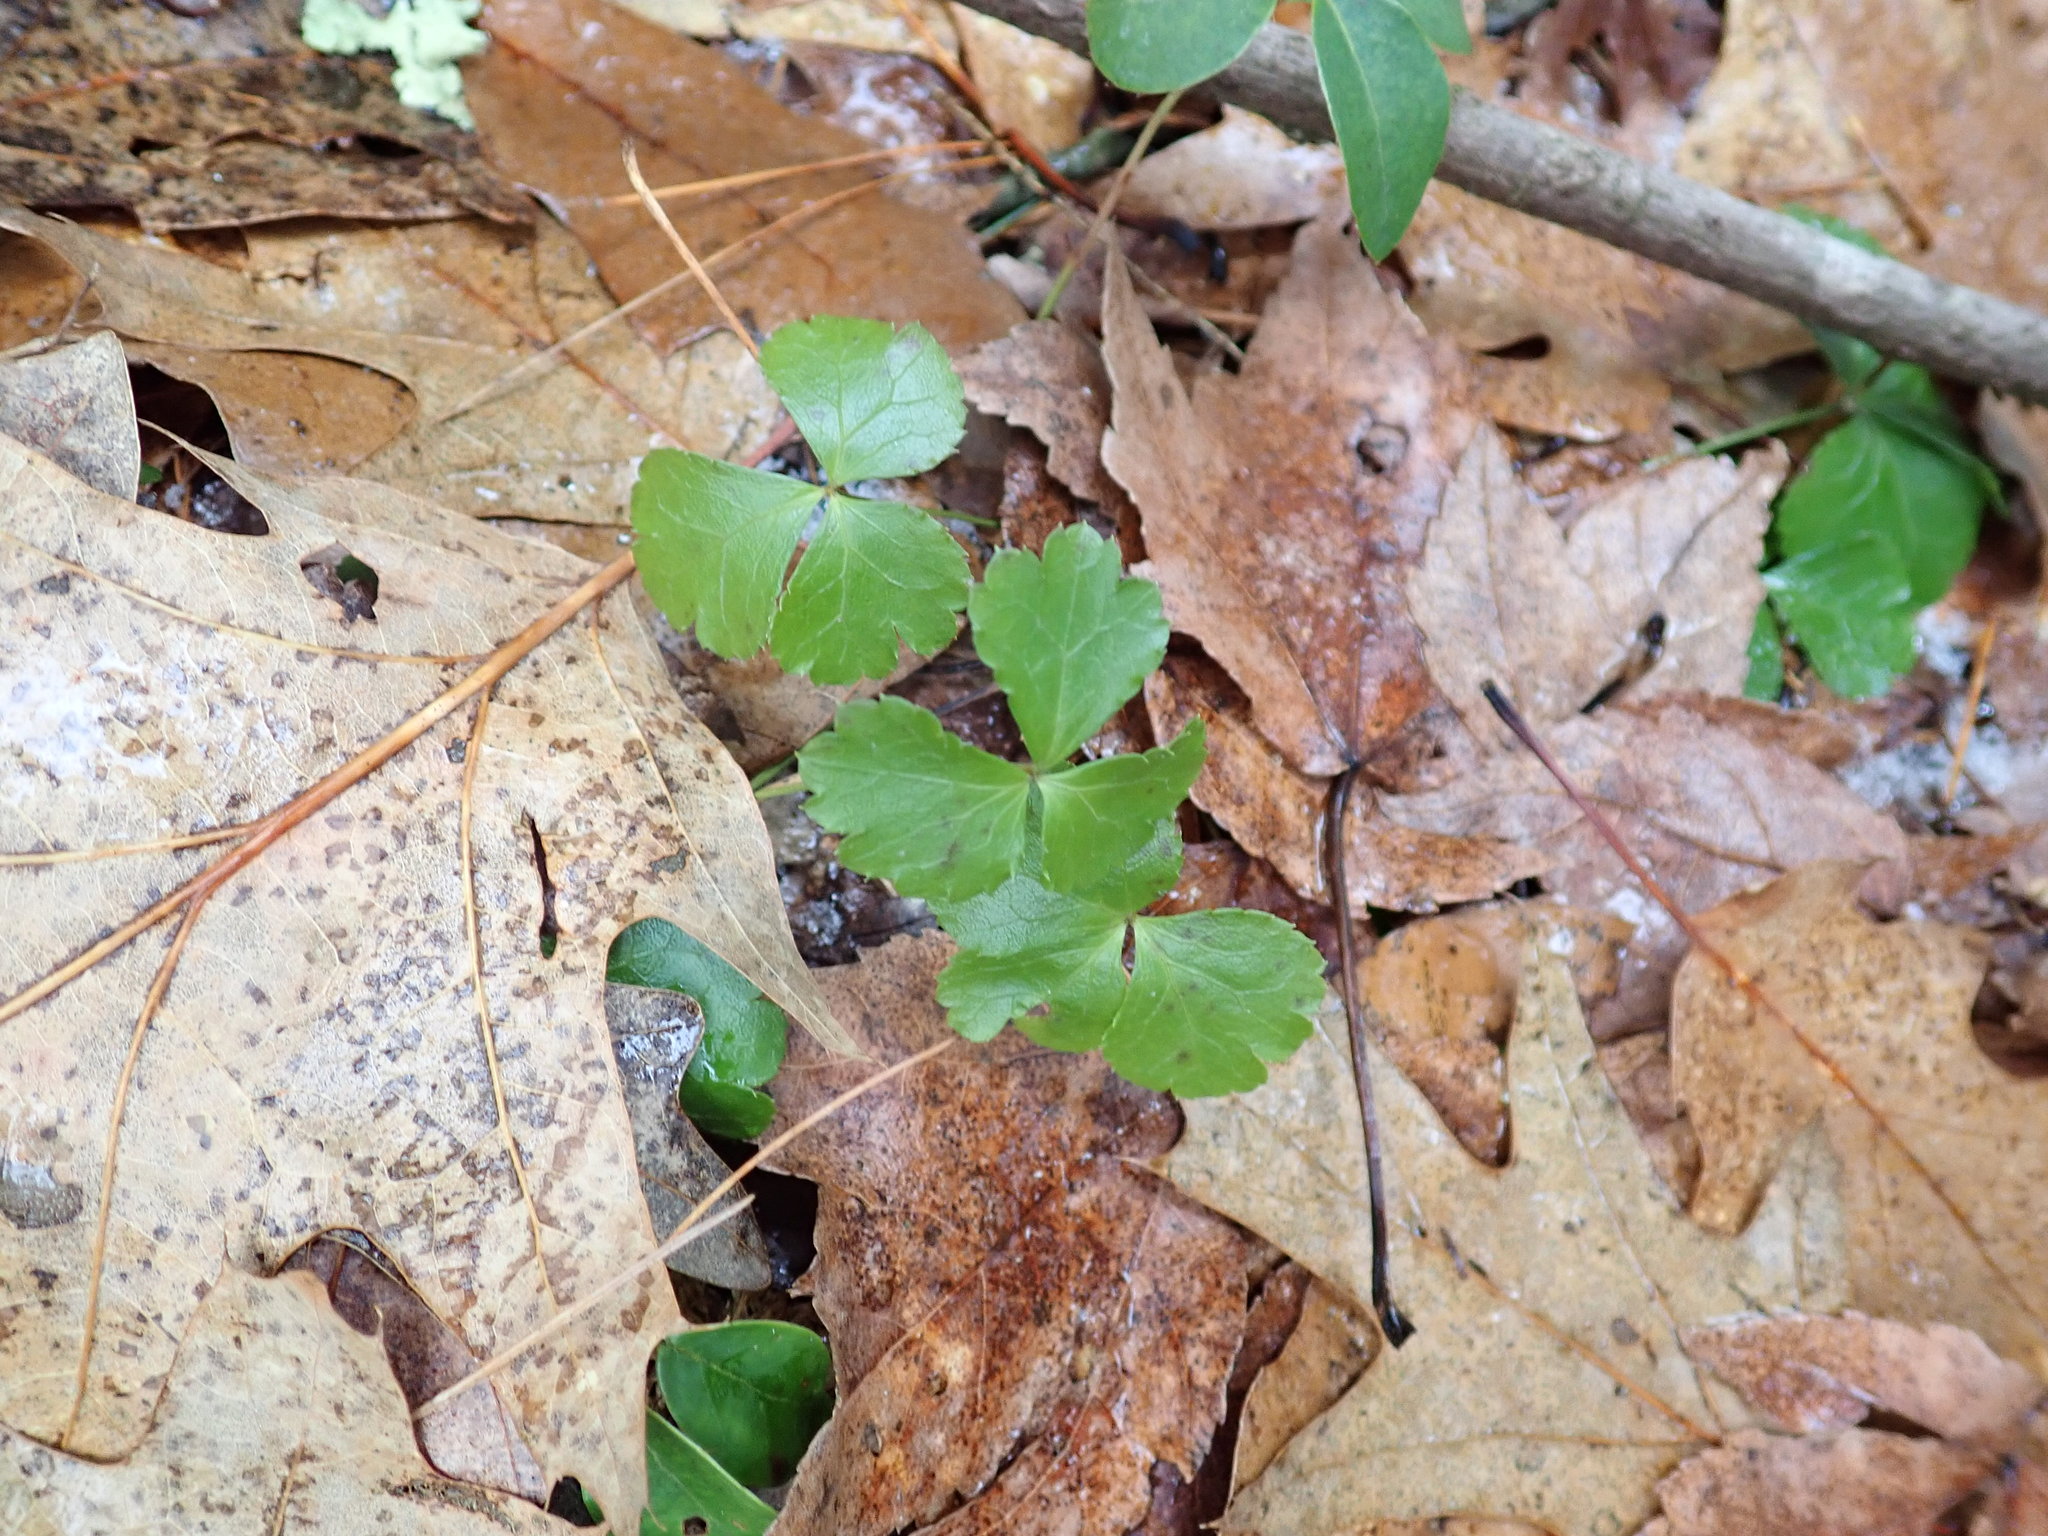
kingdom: Plantae
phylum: Tracheophyta
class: Magnoliopsida
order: Ranunculales
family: Ranunculaceae
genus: Coptis
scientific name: Coptis trifolia
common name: Canker-root
